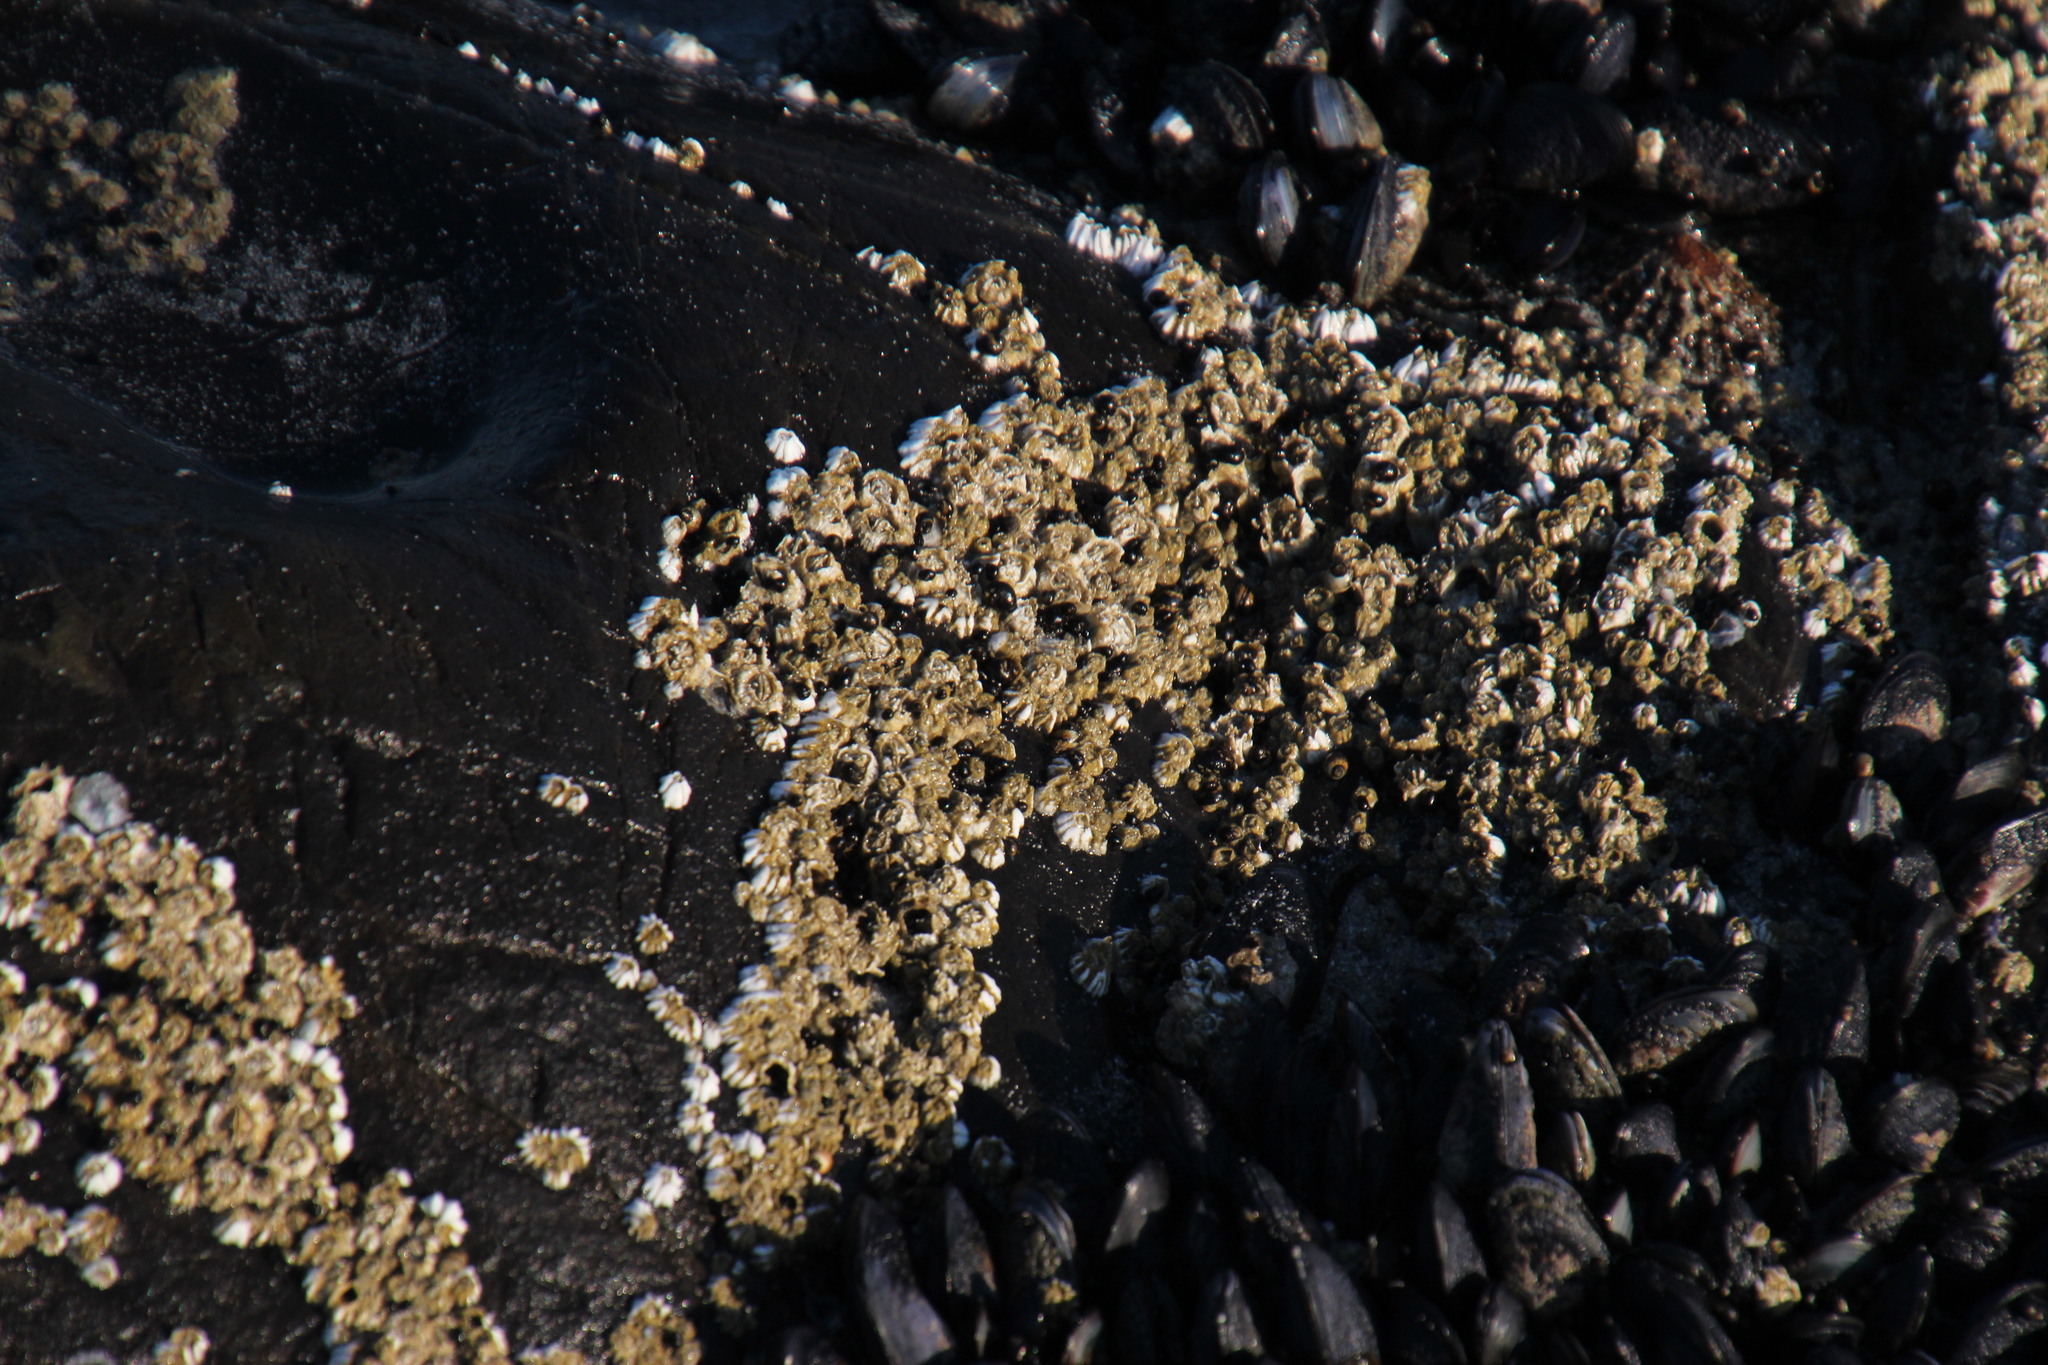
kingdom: Animalia
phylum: Arthropoda
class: Maxillopoda
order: Sessilia
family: Balanidae
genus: Balanus
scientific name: Balanus glandula
